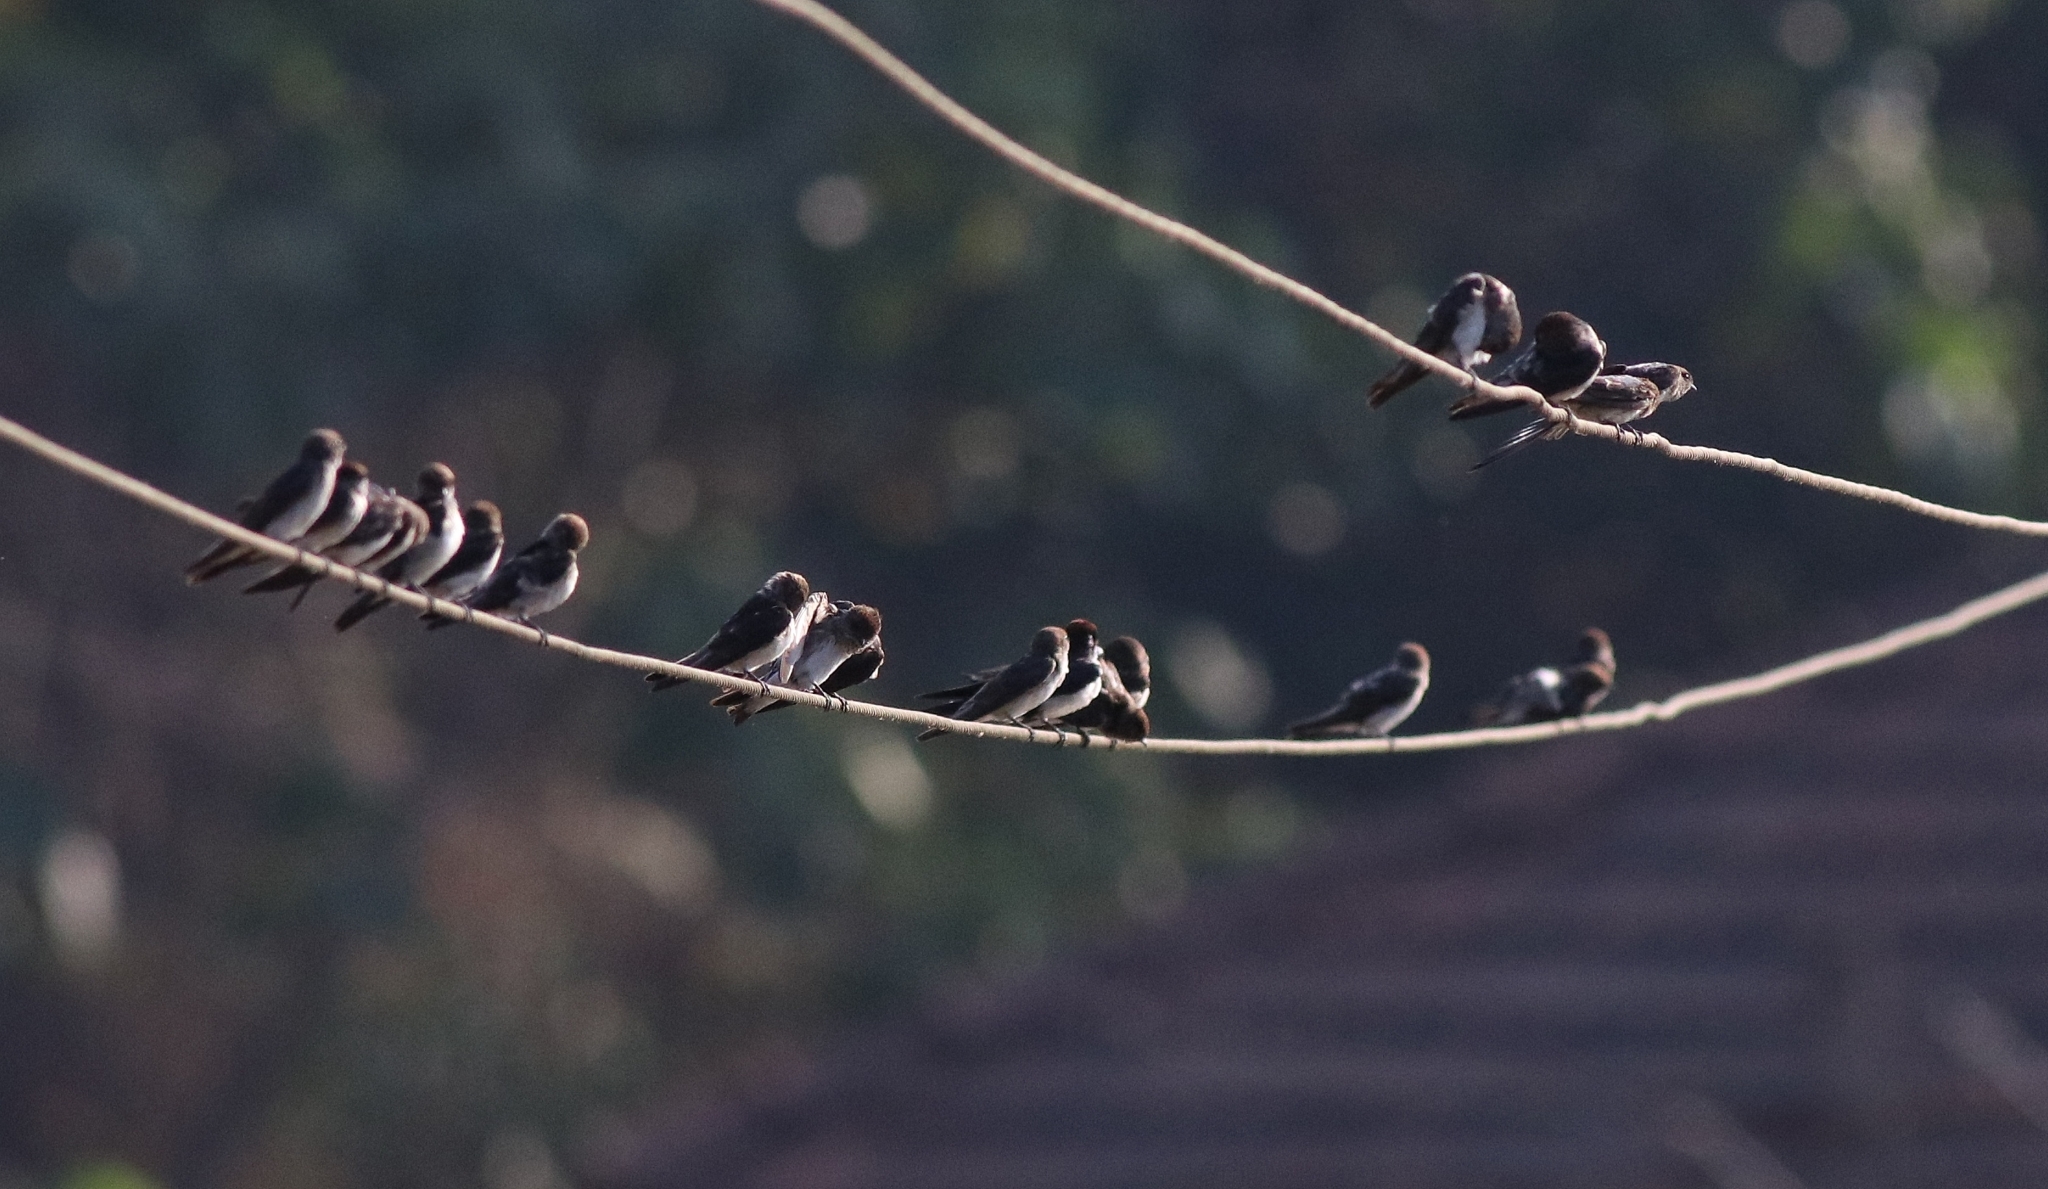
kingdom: Animalia
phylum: Chordata
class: Aves
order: Passeriformes
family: Hirundinidae
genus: Petrochelidon
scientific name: Petrochelidon fluvicola
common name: Streak-throated swallow
